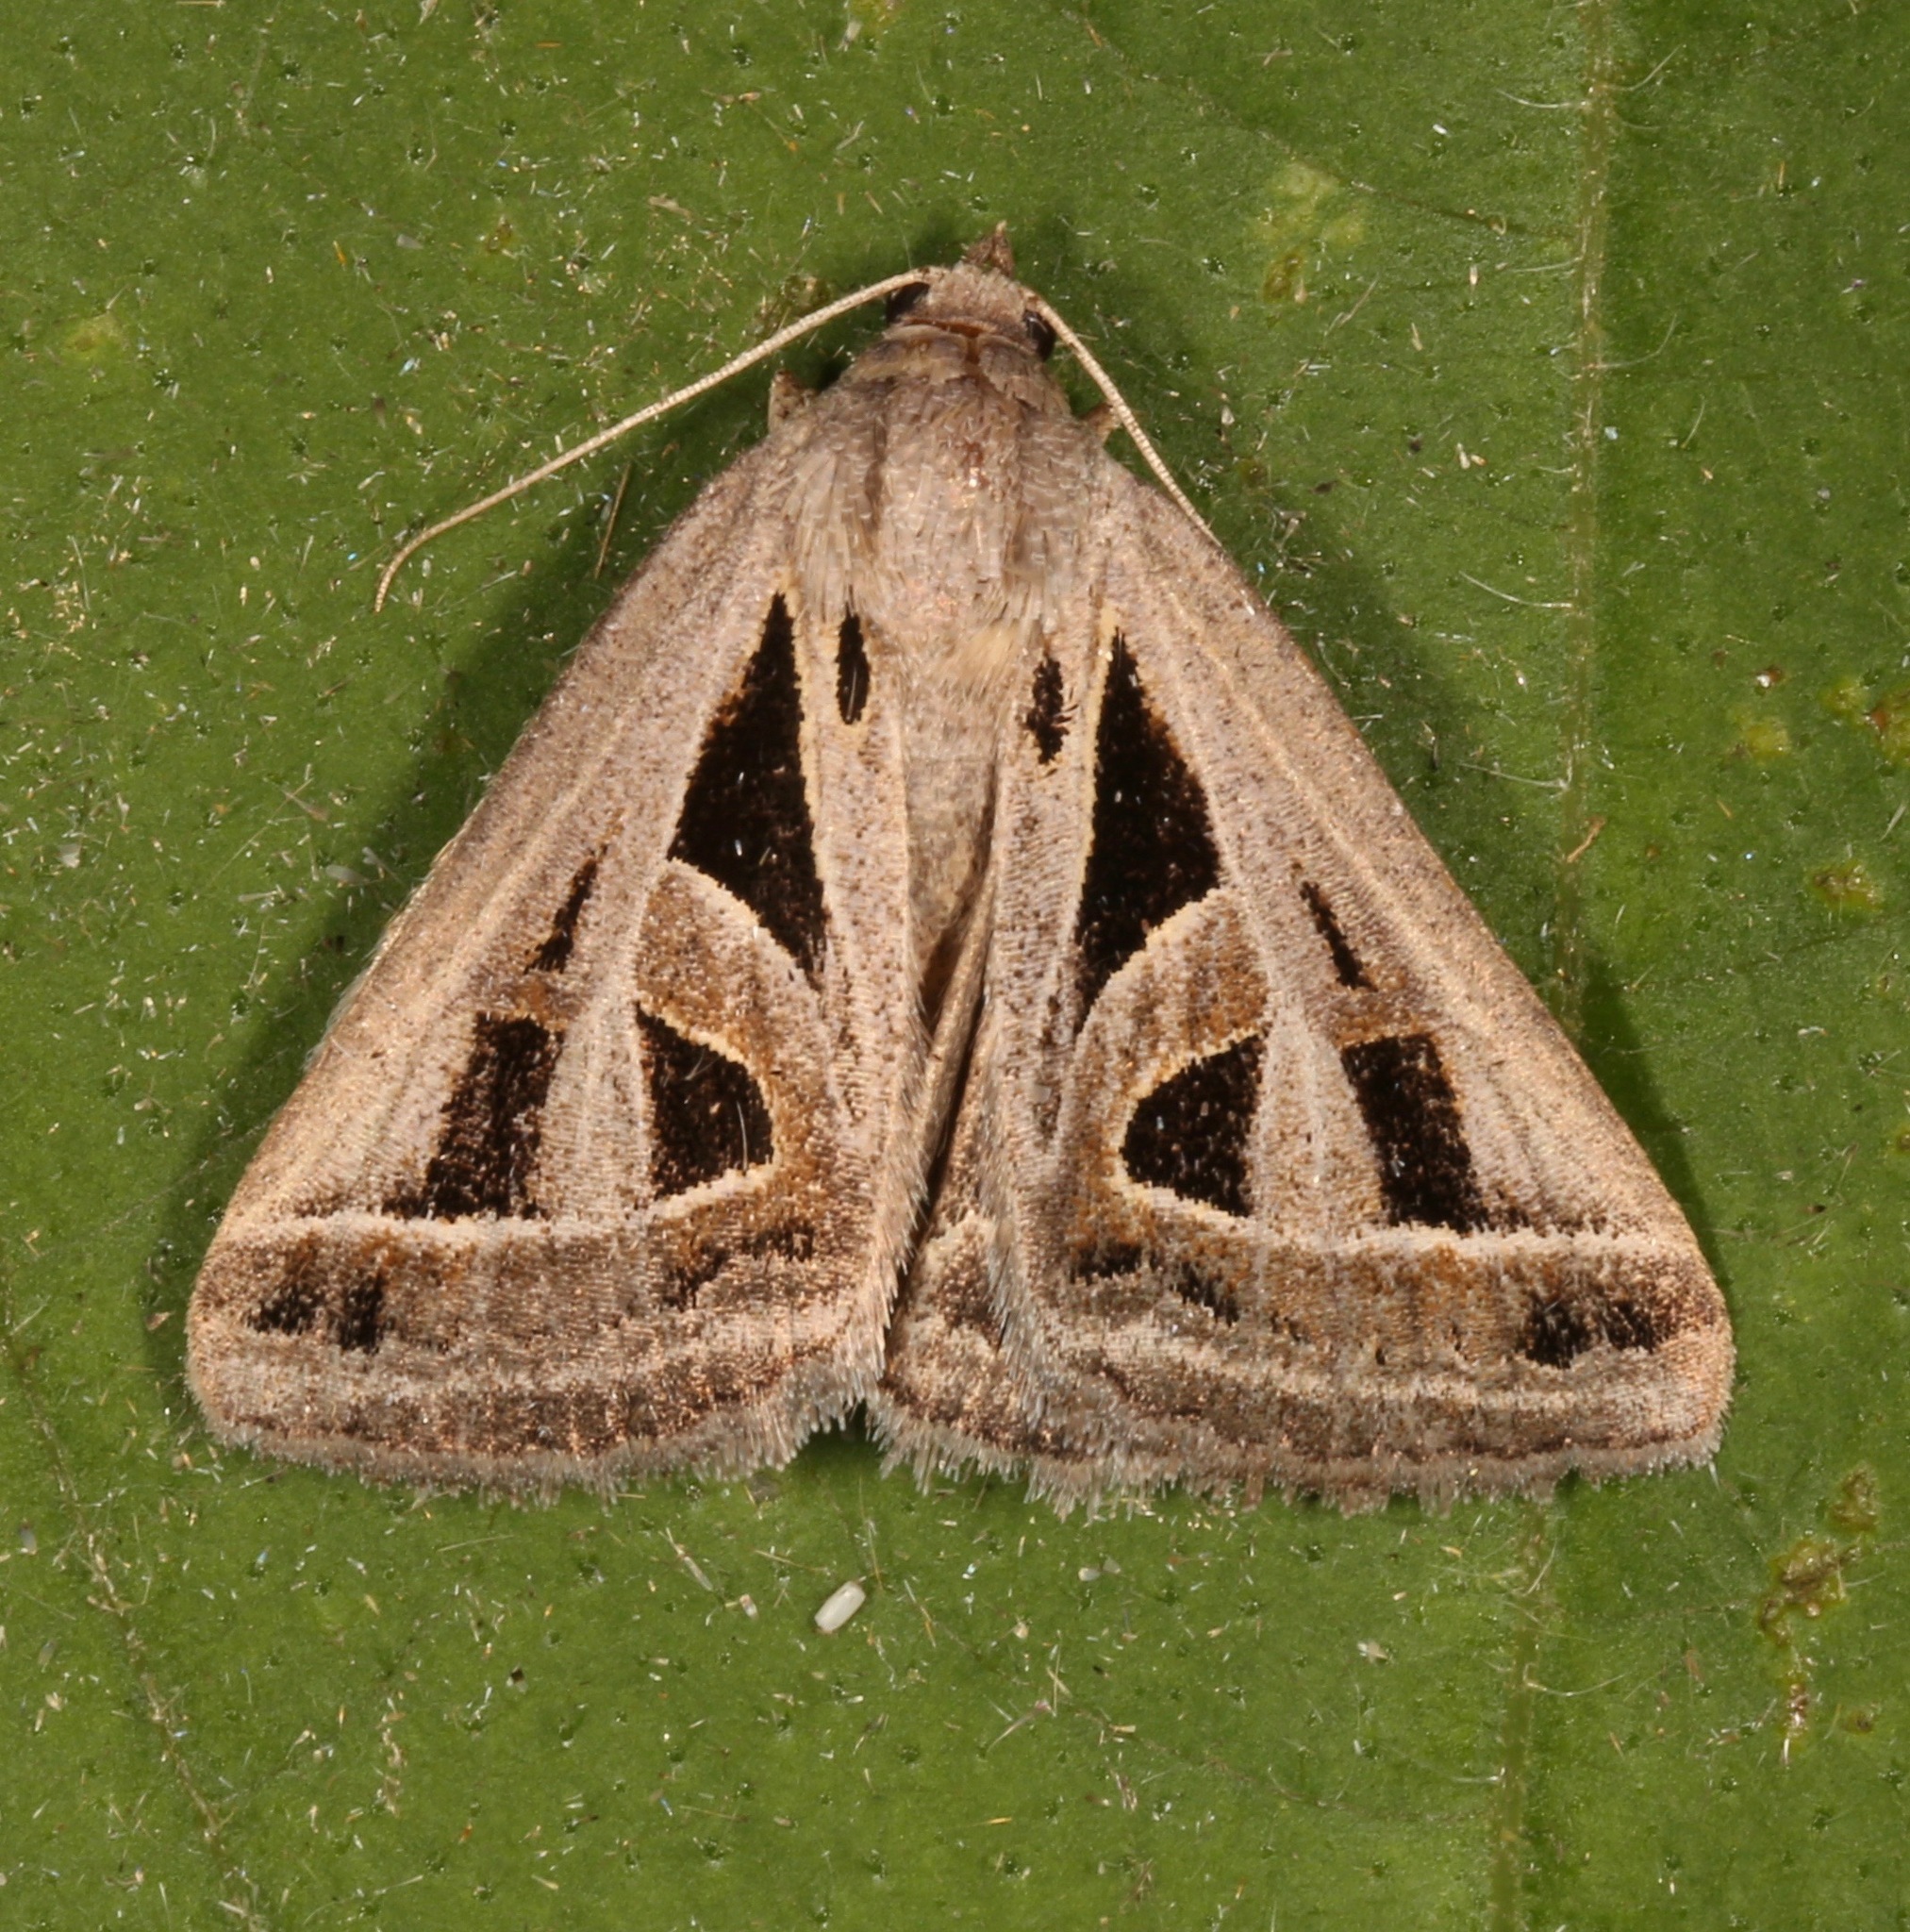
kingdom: Animalia
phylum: Arthropoda
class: Insecta
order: Lepidoptera
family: Erebidae
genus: Callistege
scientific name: Callistege diagonalis
